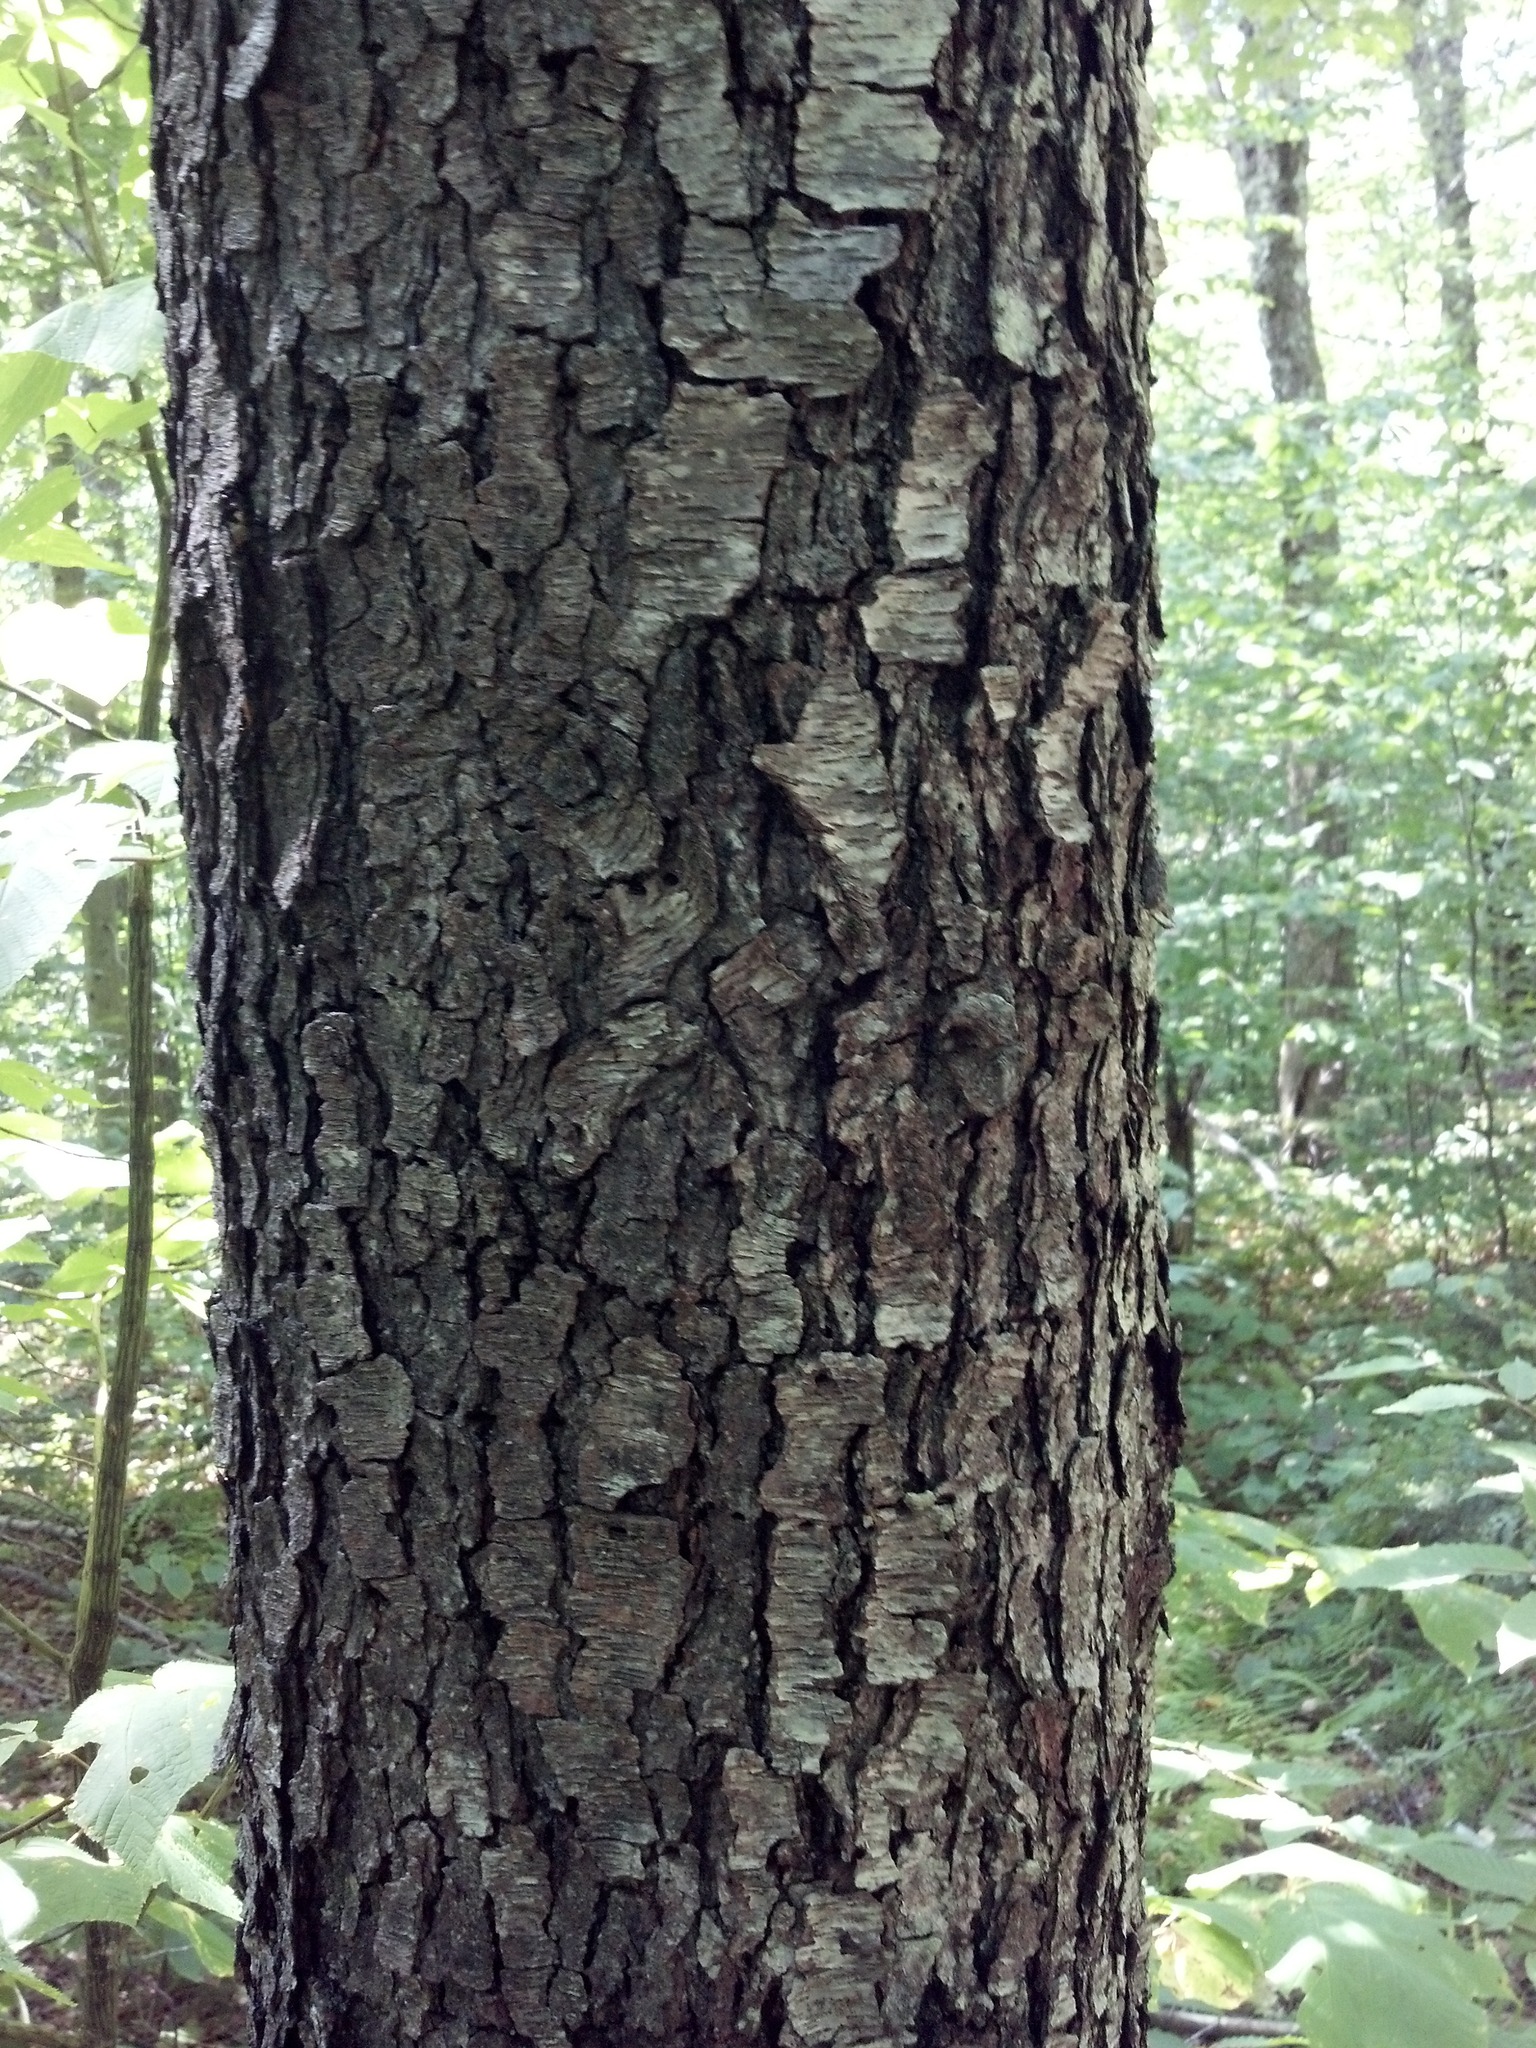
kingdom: Plantae
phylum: Tracheophyta
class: Magnoliopsida
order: Rosales
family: Rosaceae
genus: Prunus
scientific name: Prunus serotina
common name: Black cherry
